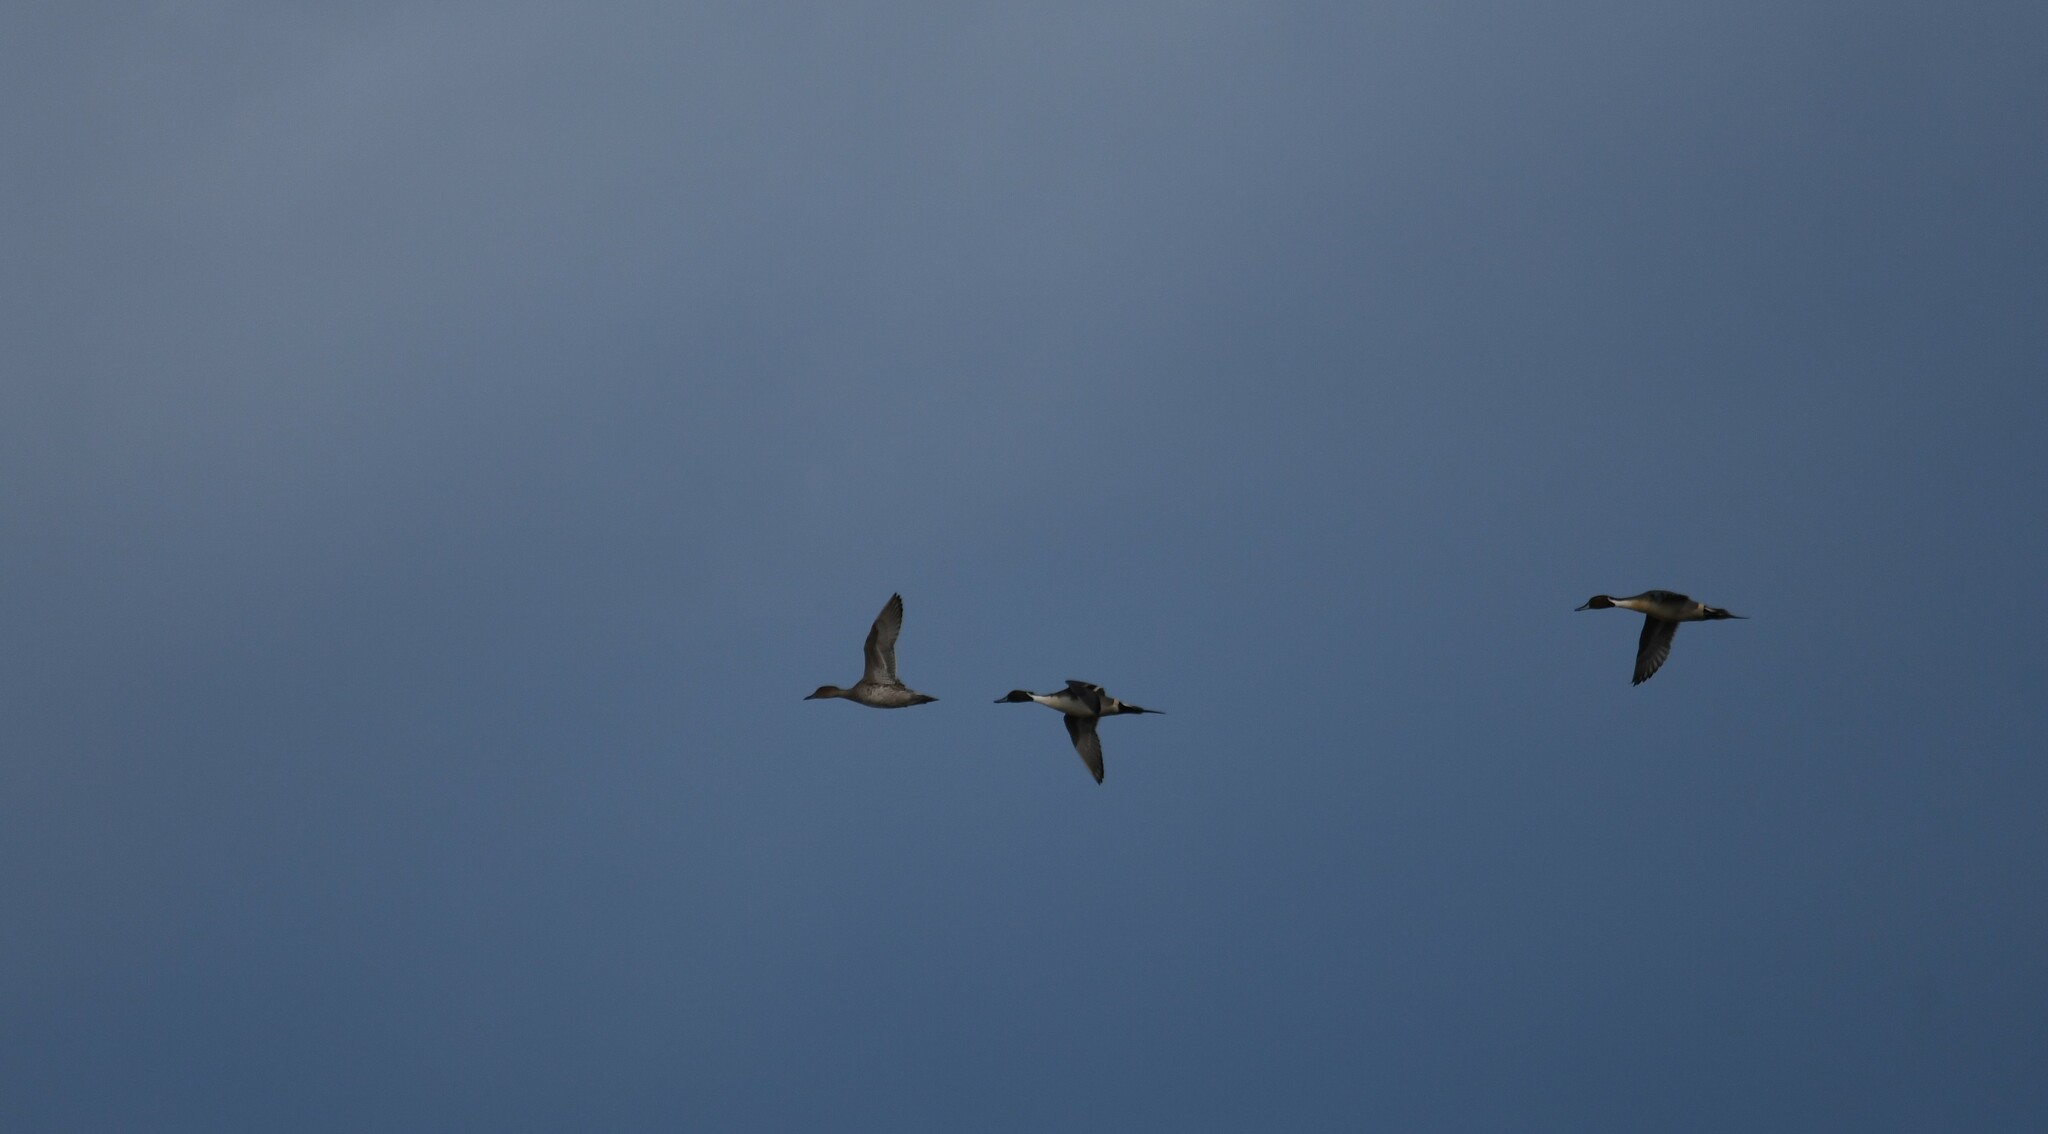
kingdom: Animalia
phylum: Chordata
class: Aves
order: Anseriformes
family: Anatidae
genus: Anas
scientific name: Anas acuta
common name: Northern pintail
